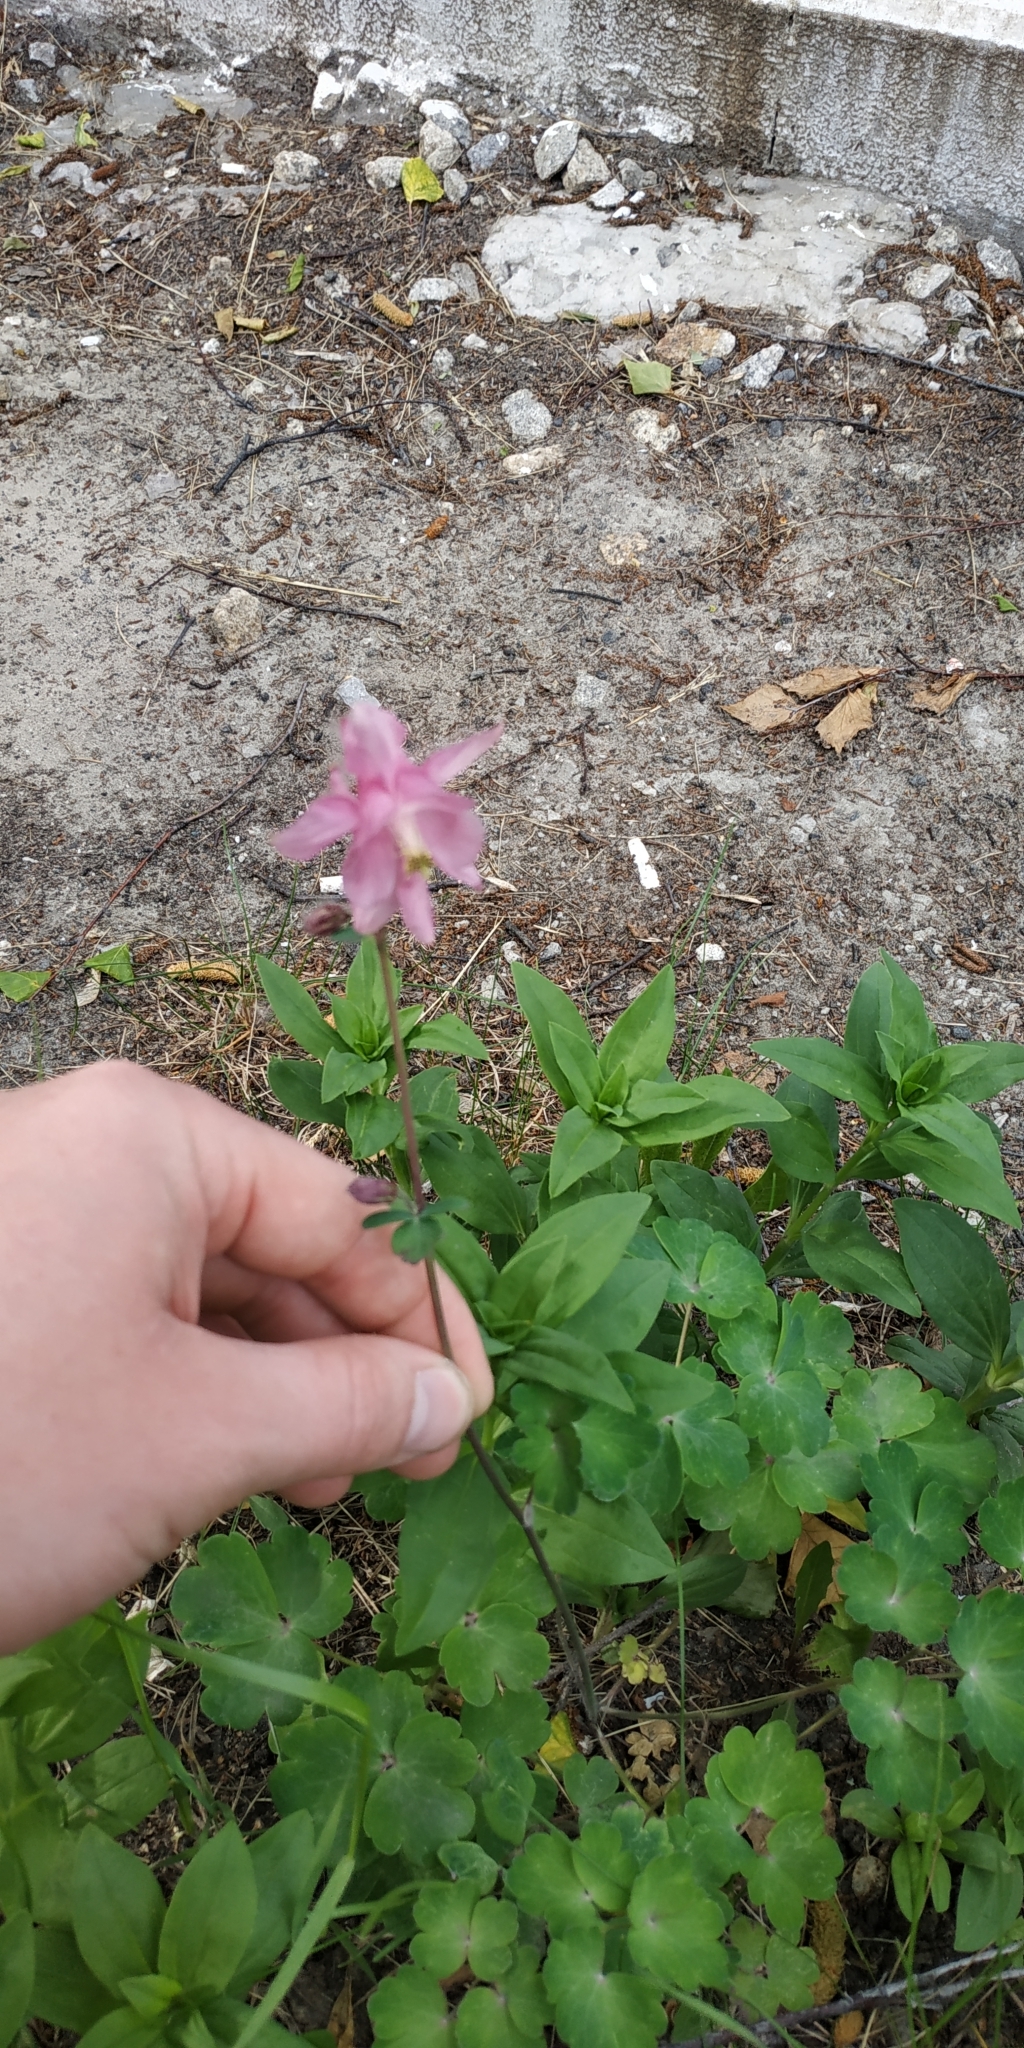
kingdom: Plantae
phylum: Tracheophyta
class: Magnoliopsida
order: Ranunculales
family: Ranunculaceae
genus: Aquilegia
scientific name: Aquilegia vulgaris
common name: Columbine
